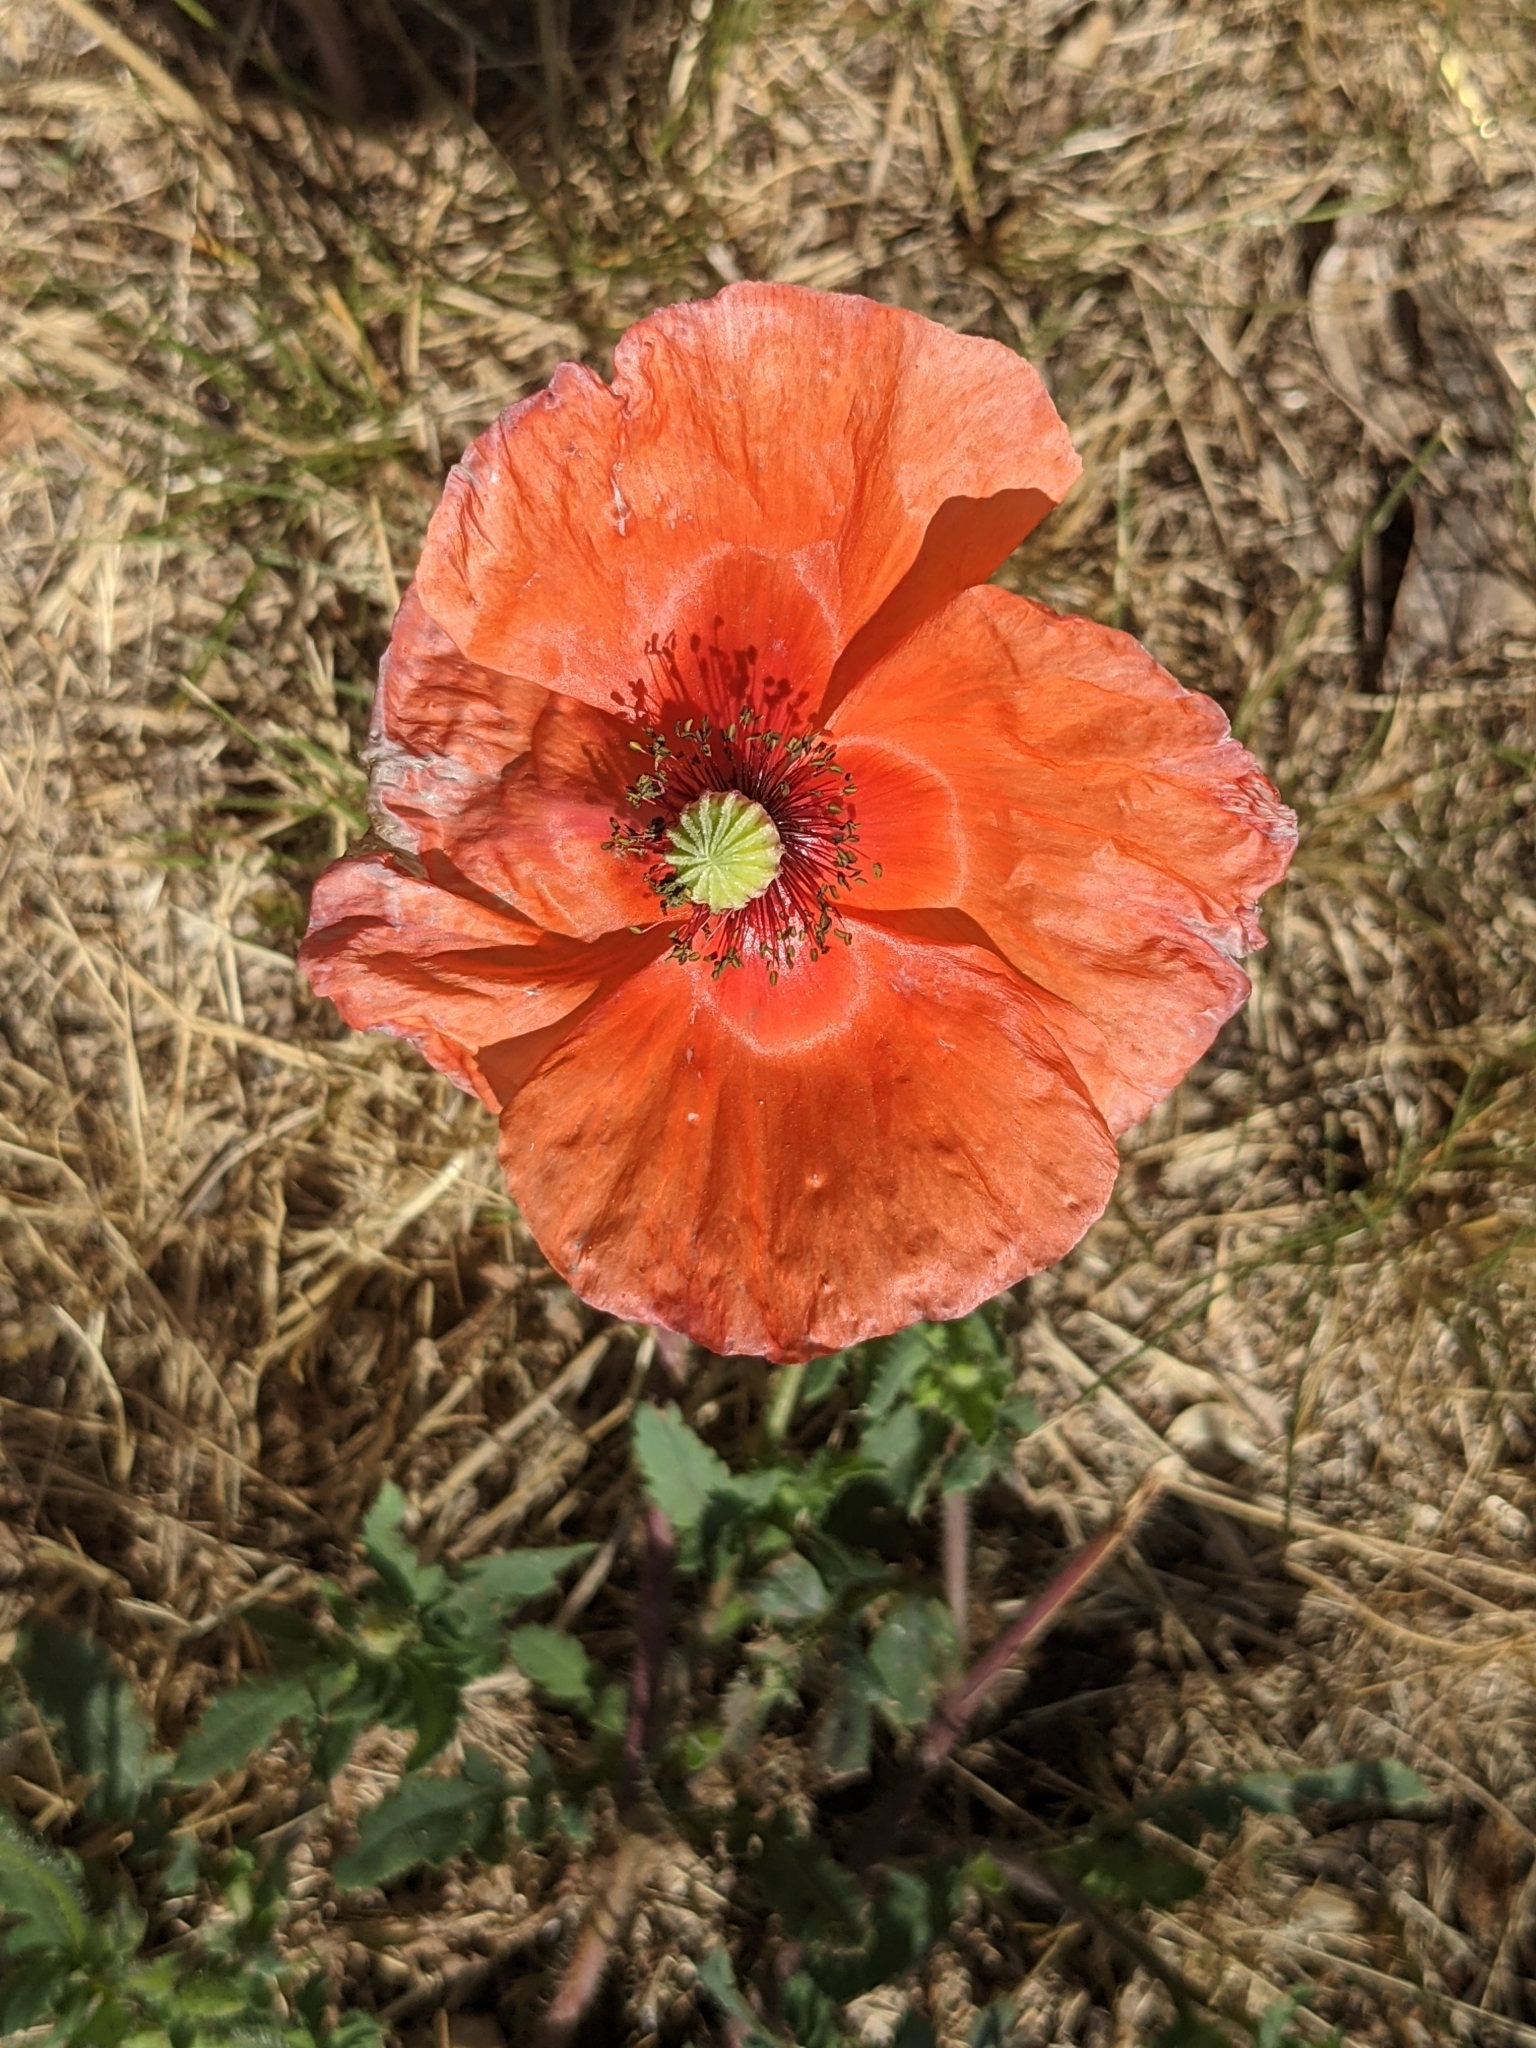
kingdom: Plantae
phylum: Tracheophyta
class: Magnoliopsida
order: Ranunculales
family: Papaveraceae
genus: Papaver
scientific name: Papaver rhoeas
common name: Corn poppy
